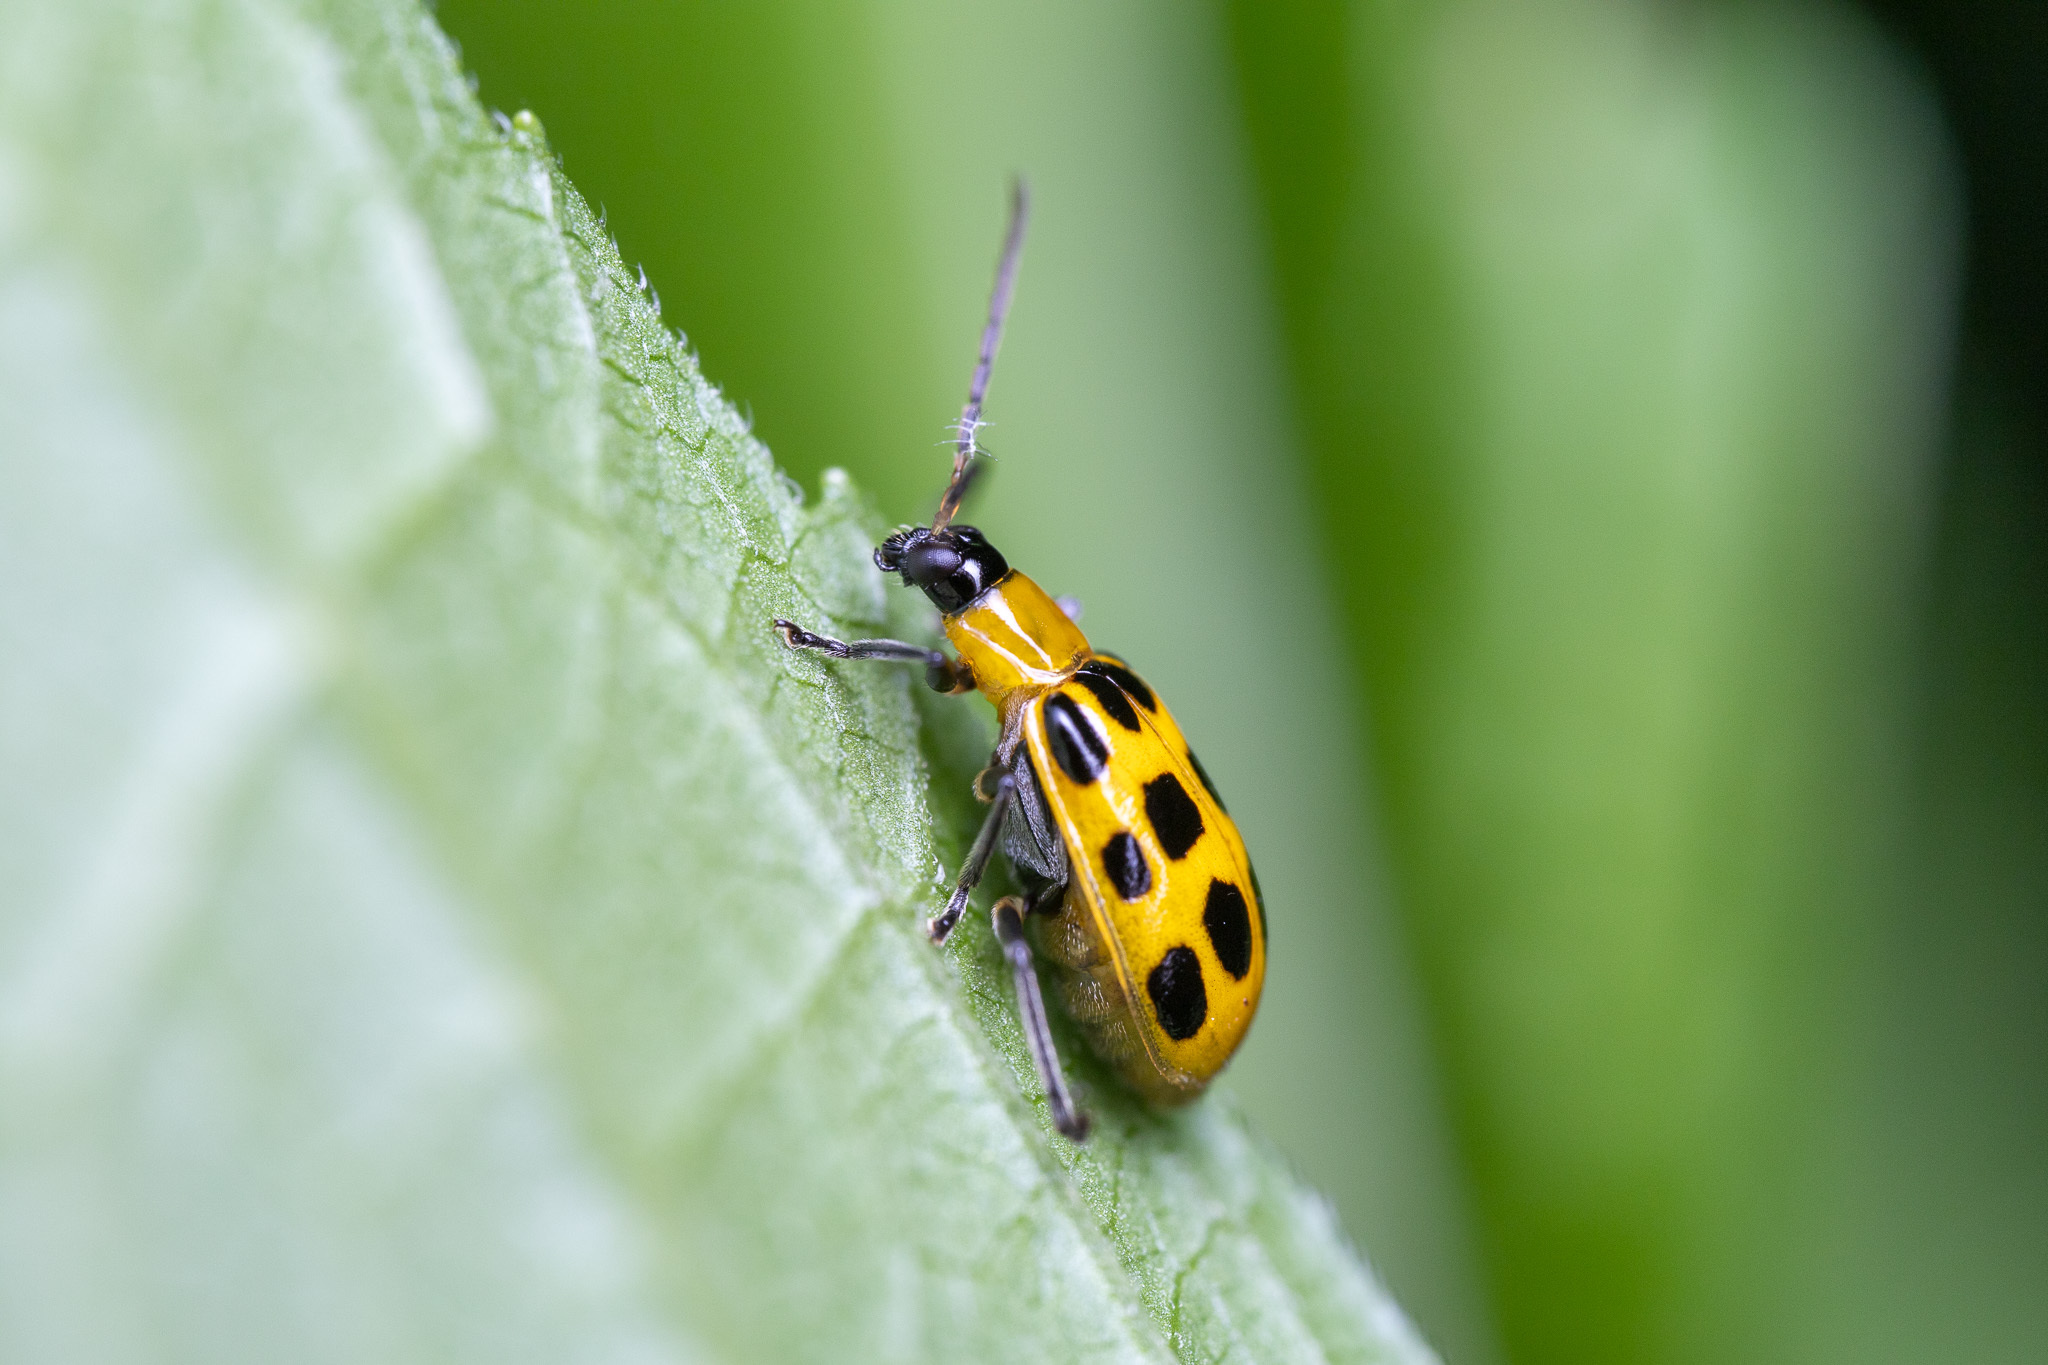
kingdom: Animalia
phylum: Arthropoda
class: Insecta
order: Coleoptera
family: Chrysomelidae
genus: Diabrotica
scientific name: Diabrotica undecimpunctata
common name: Spotted cucumber beetle
